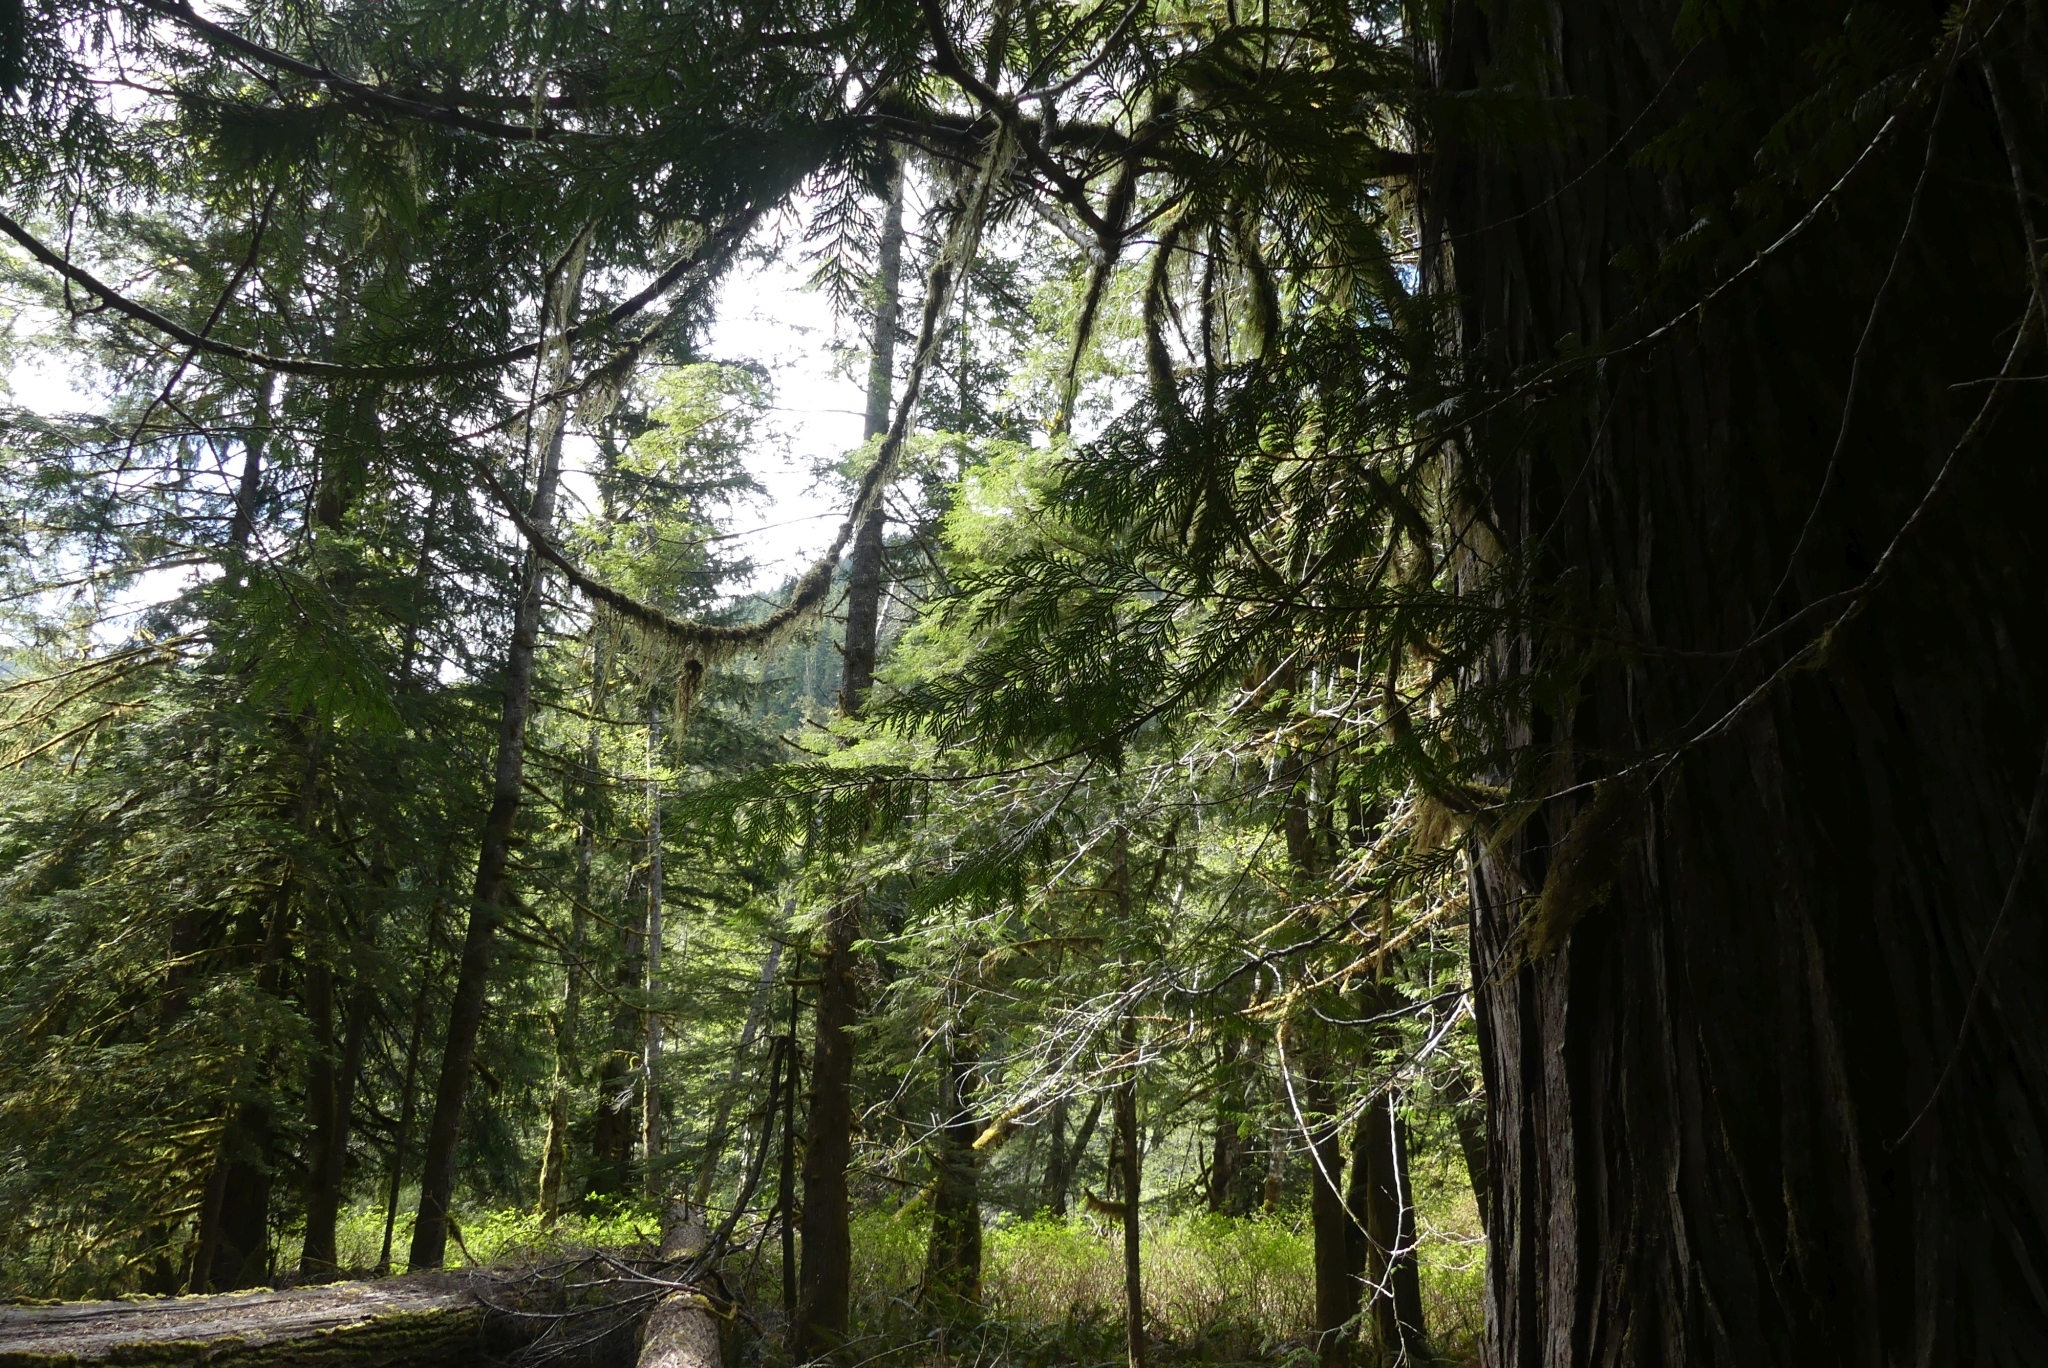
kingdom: Plantae
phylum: Tracheophyta
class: Pinopsida
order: Pinales
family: Cupressaceae
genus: Thuja
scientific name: Thuja plicata
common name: Western red-cedar
